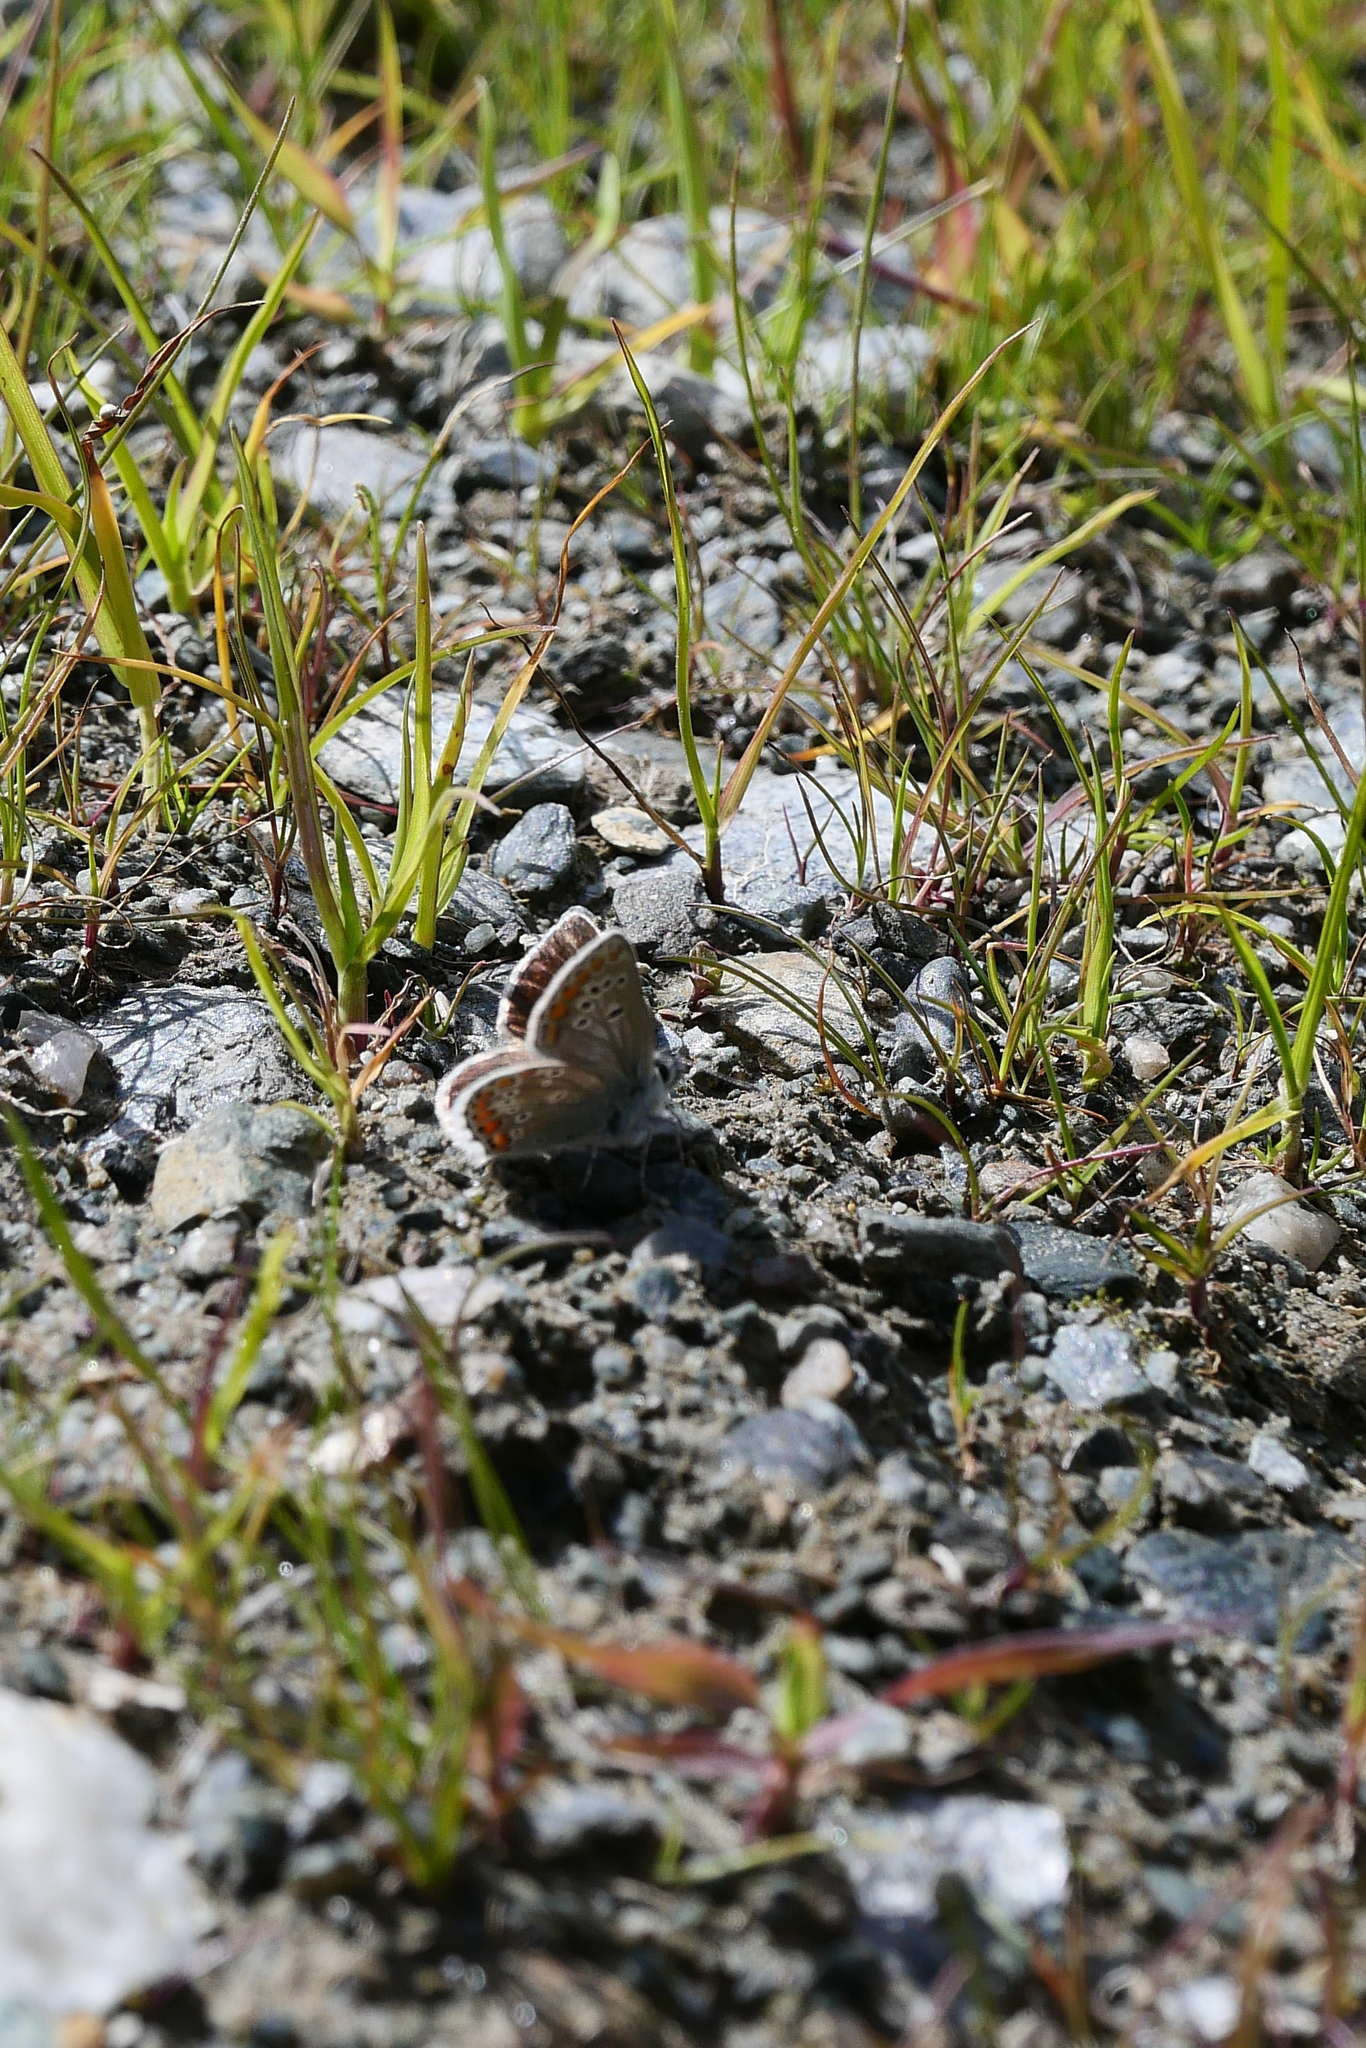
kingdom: Animalia
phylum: Arthropoda
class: Insecta
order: Lepidoptera
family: Lycaenidae
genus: Aricia
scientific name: Aricia artaxerxes
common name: Northern brown argus
